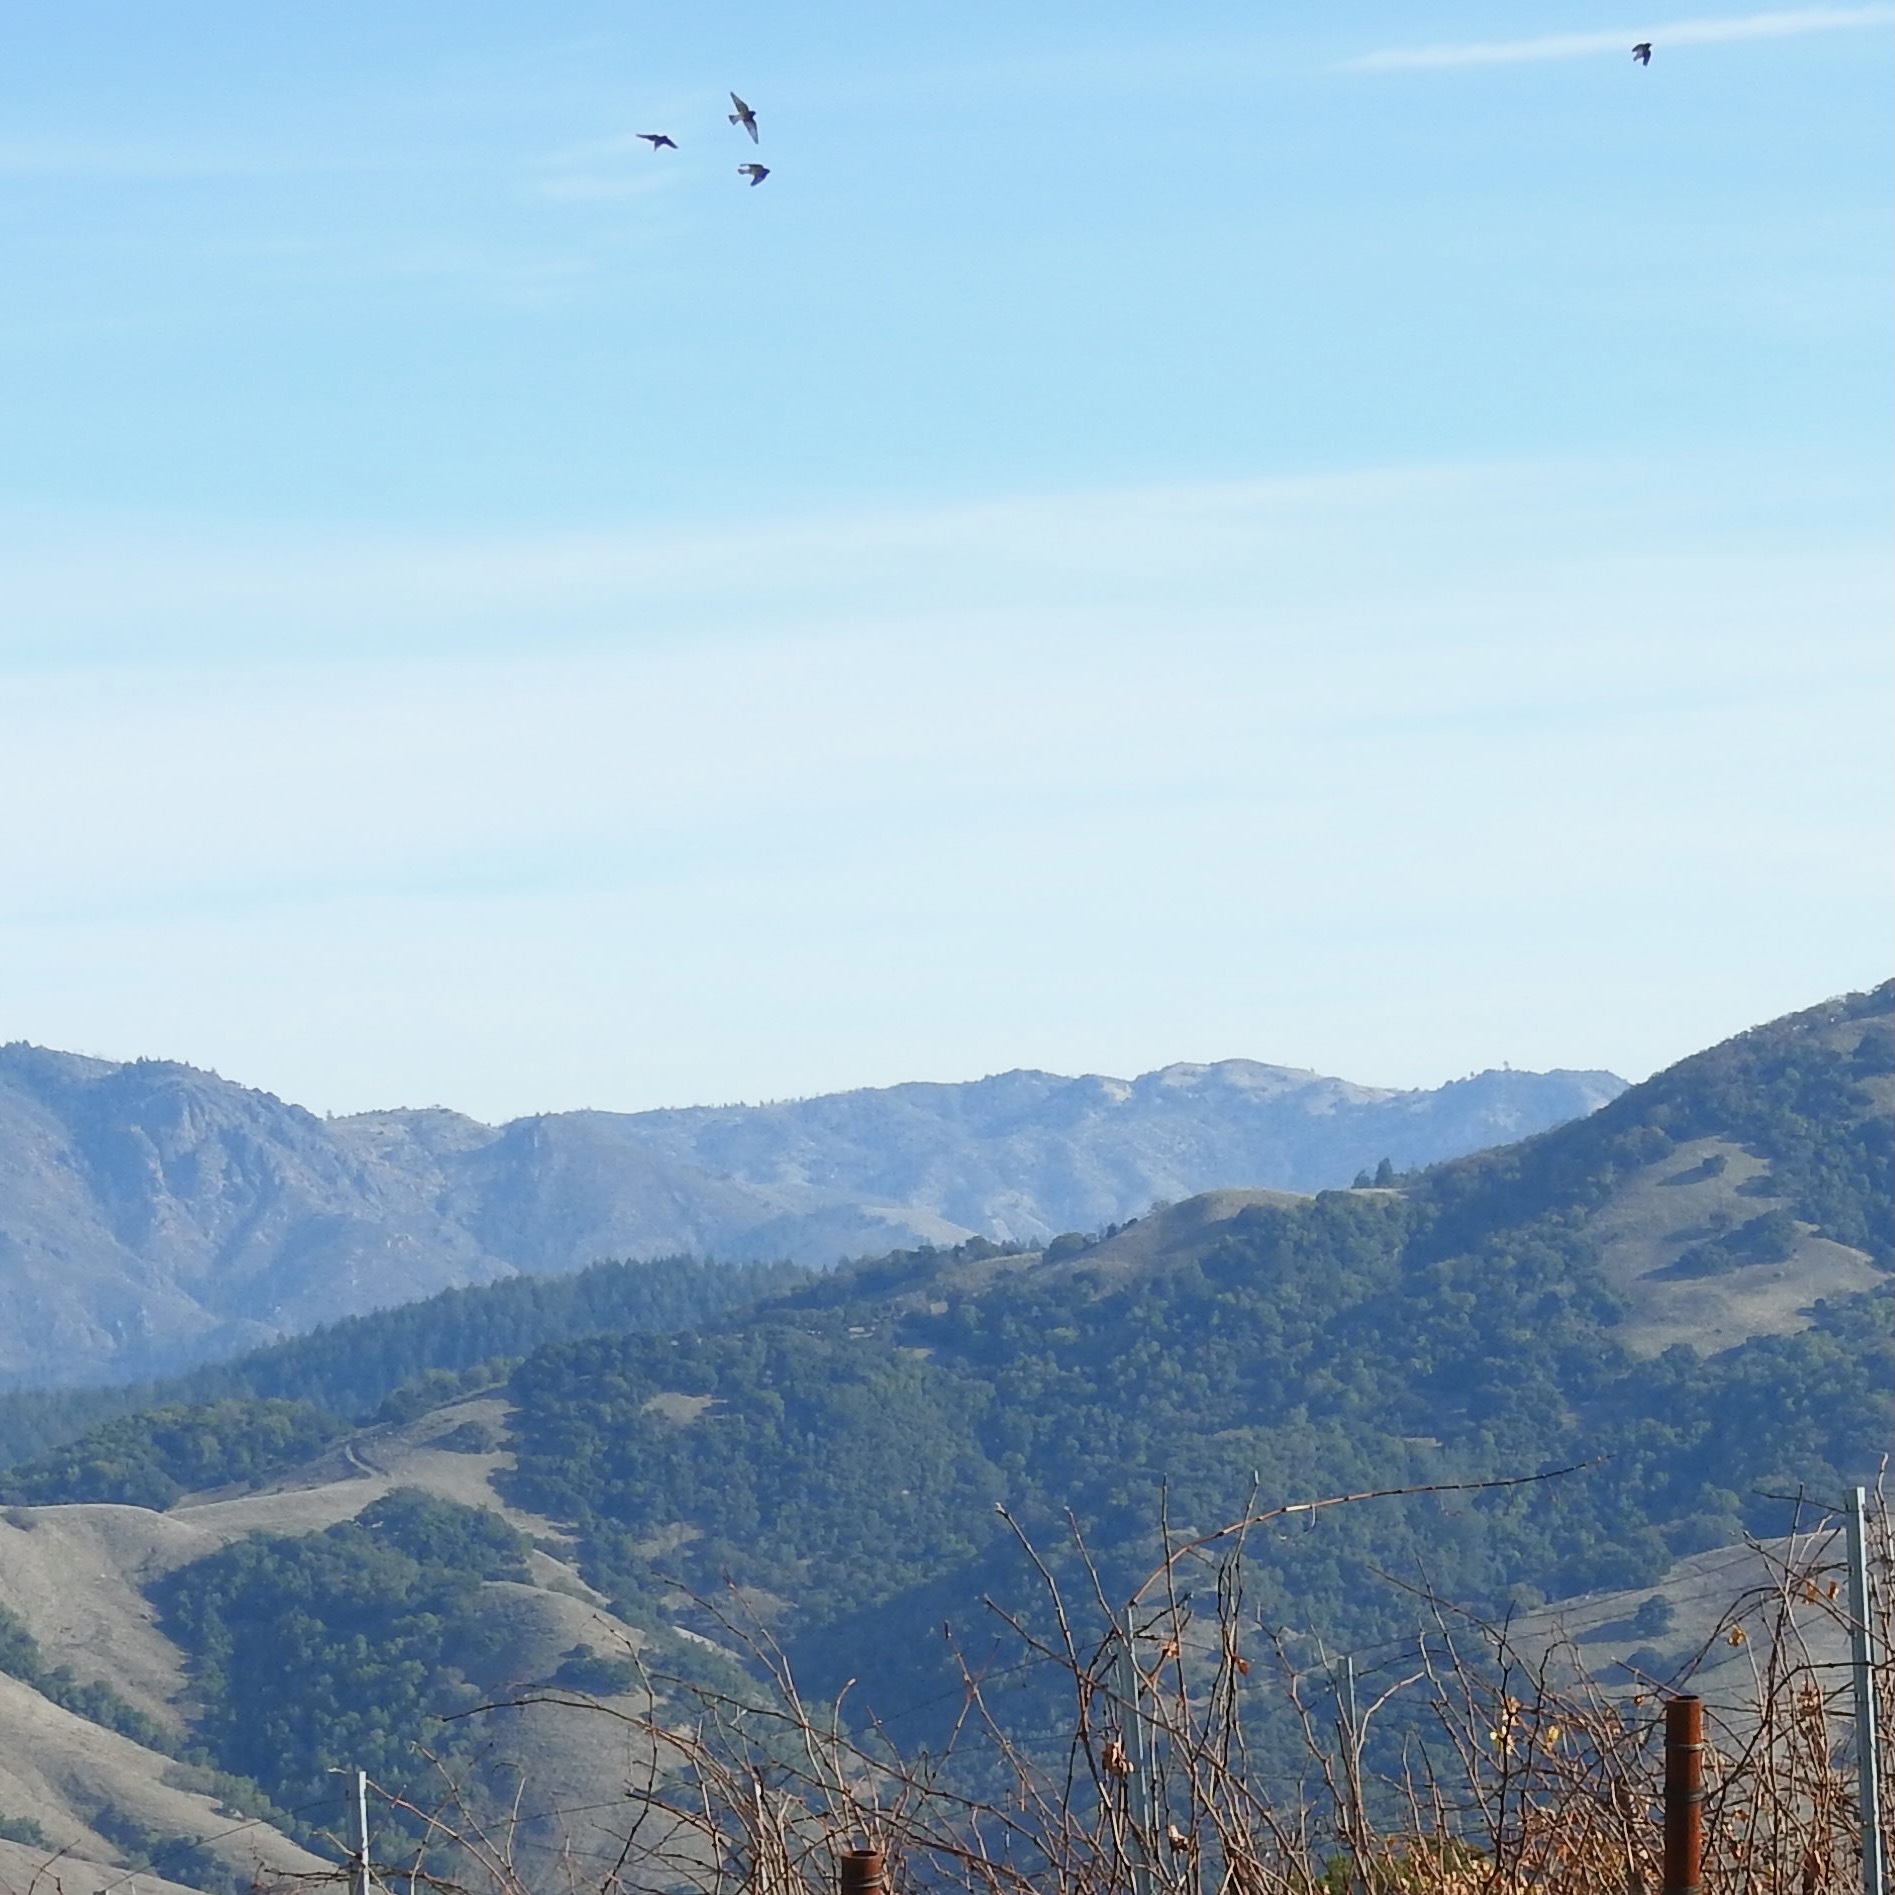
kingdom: Animalia
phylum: Chordata
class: Aves
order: Passeriformes
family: Bombycillidae
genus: Bombycilla
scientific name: Bombycilla cedrorum
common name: Cedar waxwing
